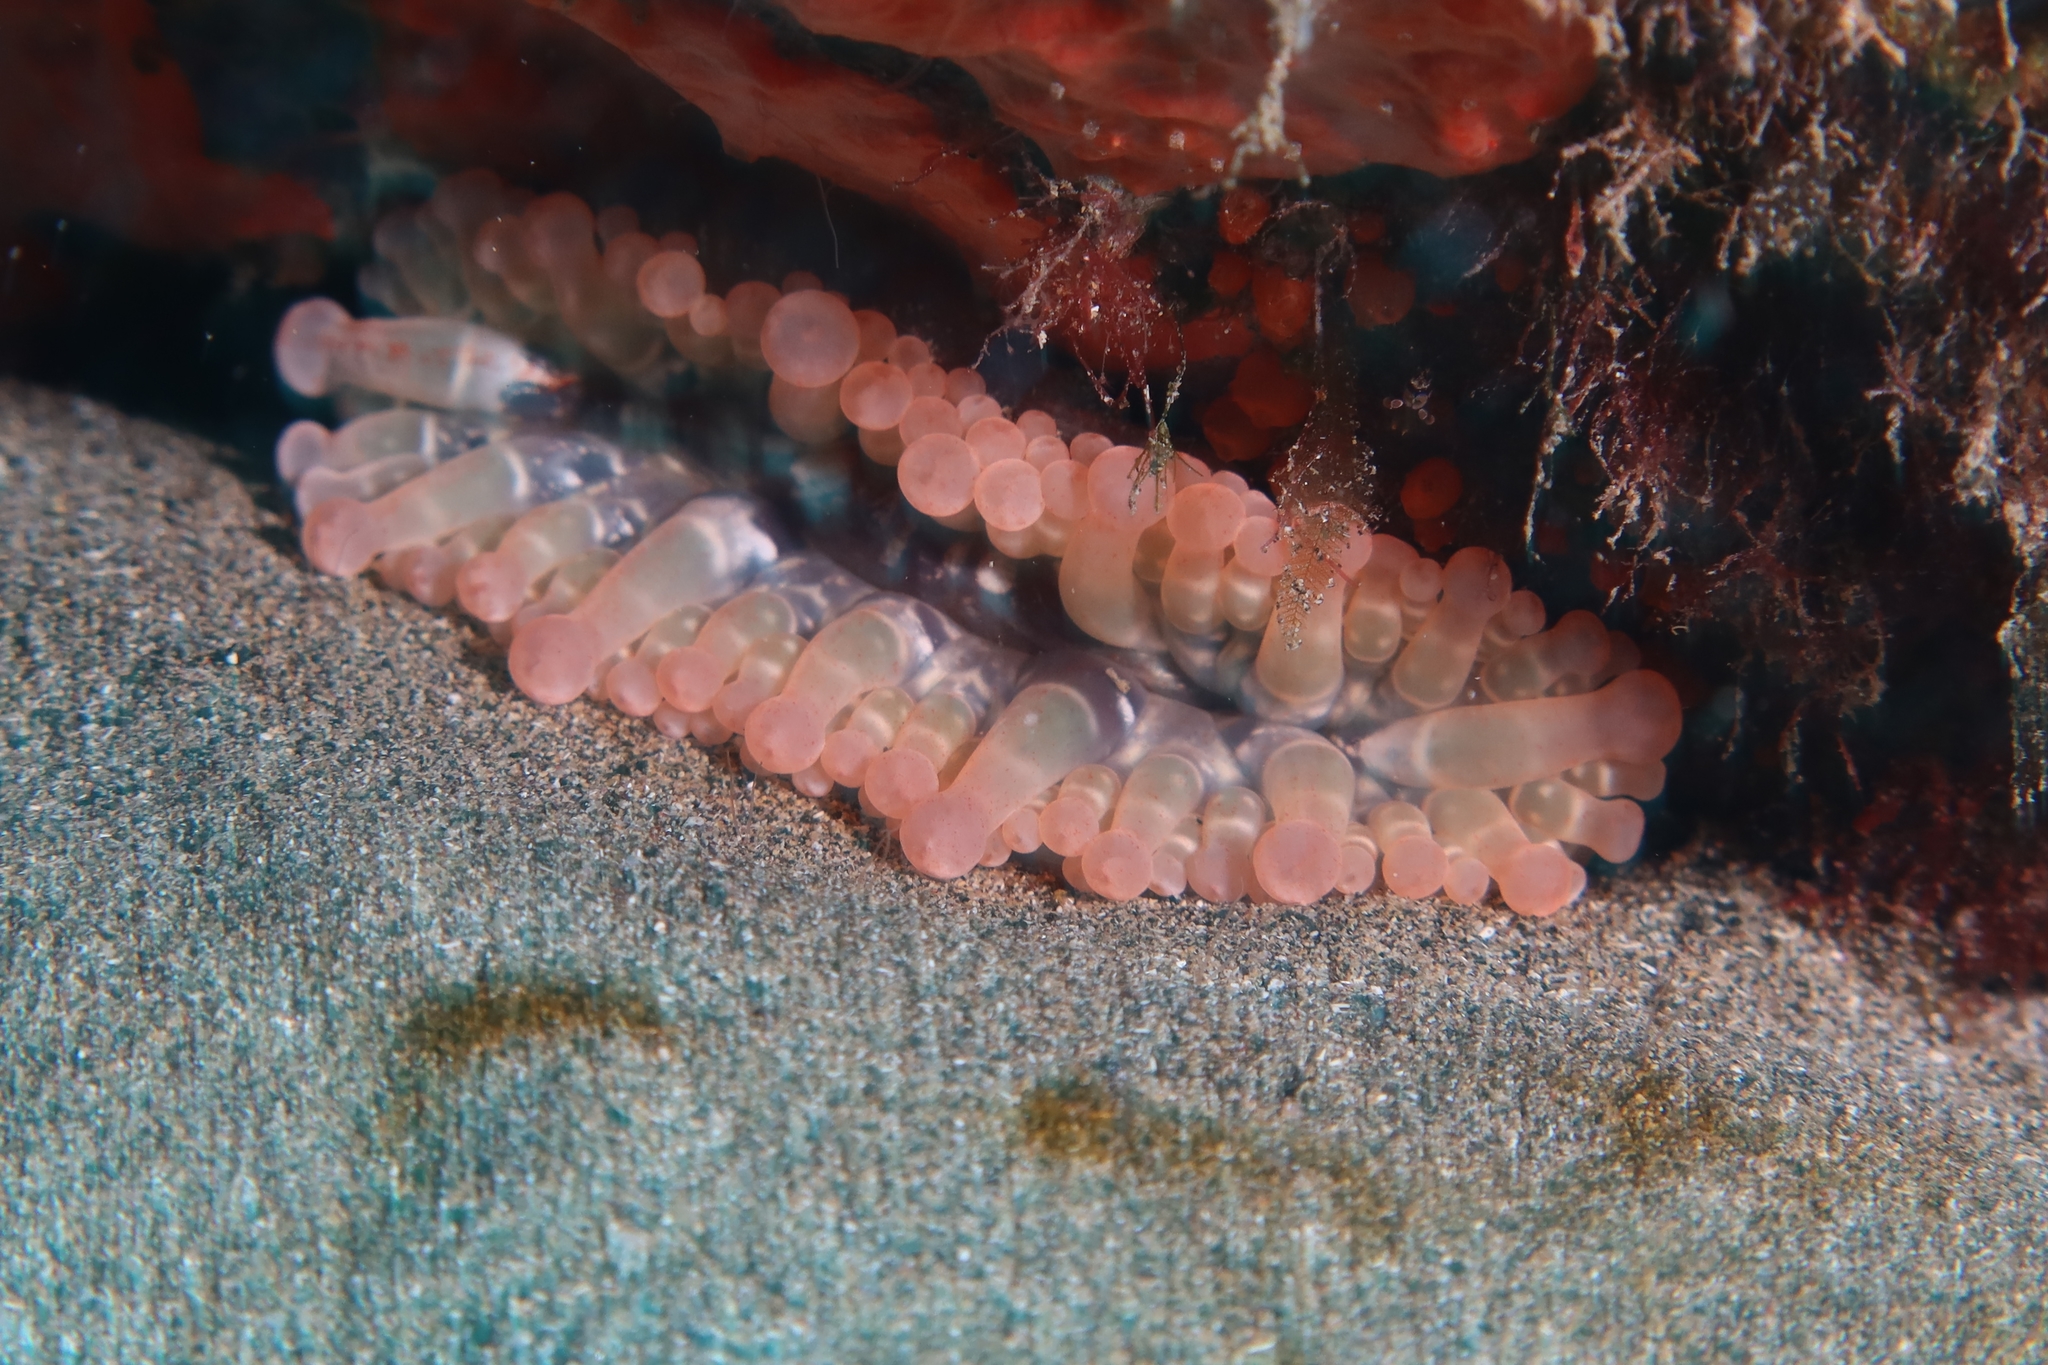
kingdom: Animalia
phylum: Cnidaria
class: Anthozoa
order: Actiniaria
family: Andvakiidae
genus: Telmatactis
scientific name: Telmatactis cricoides
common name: Blunt-tentacled anemone
